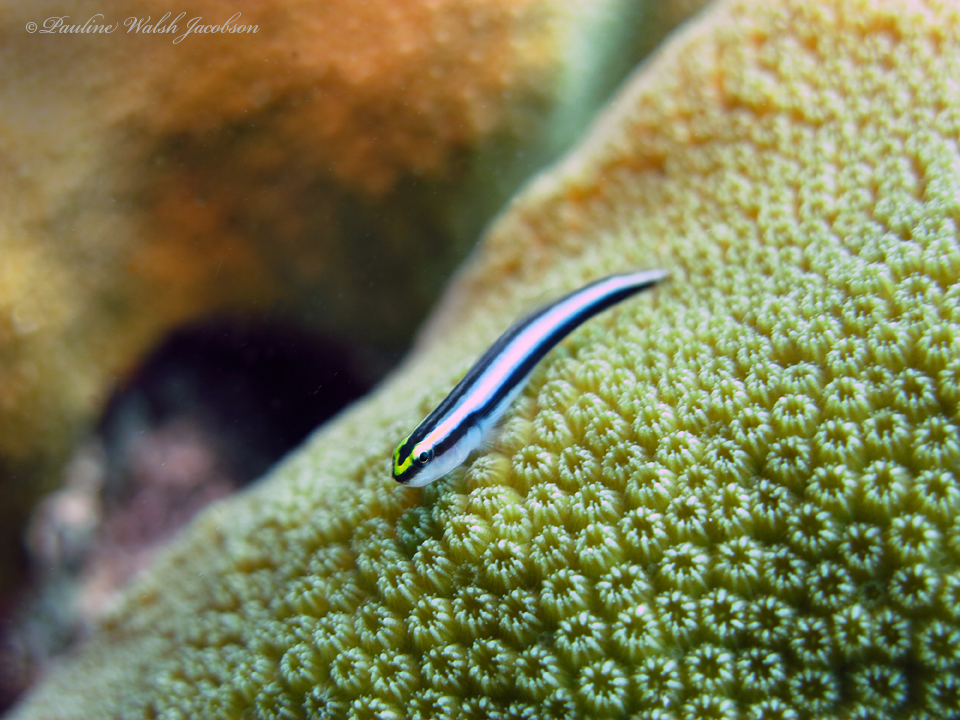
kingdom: Animalia
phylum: Chordata
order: Perciformes
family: Gobiidae
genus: Elacatinus
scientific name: Elacatinus evelynae
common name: Sharknose goby
